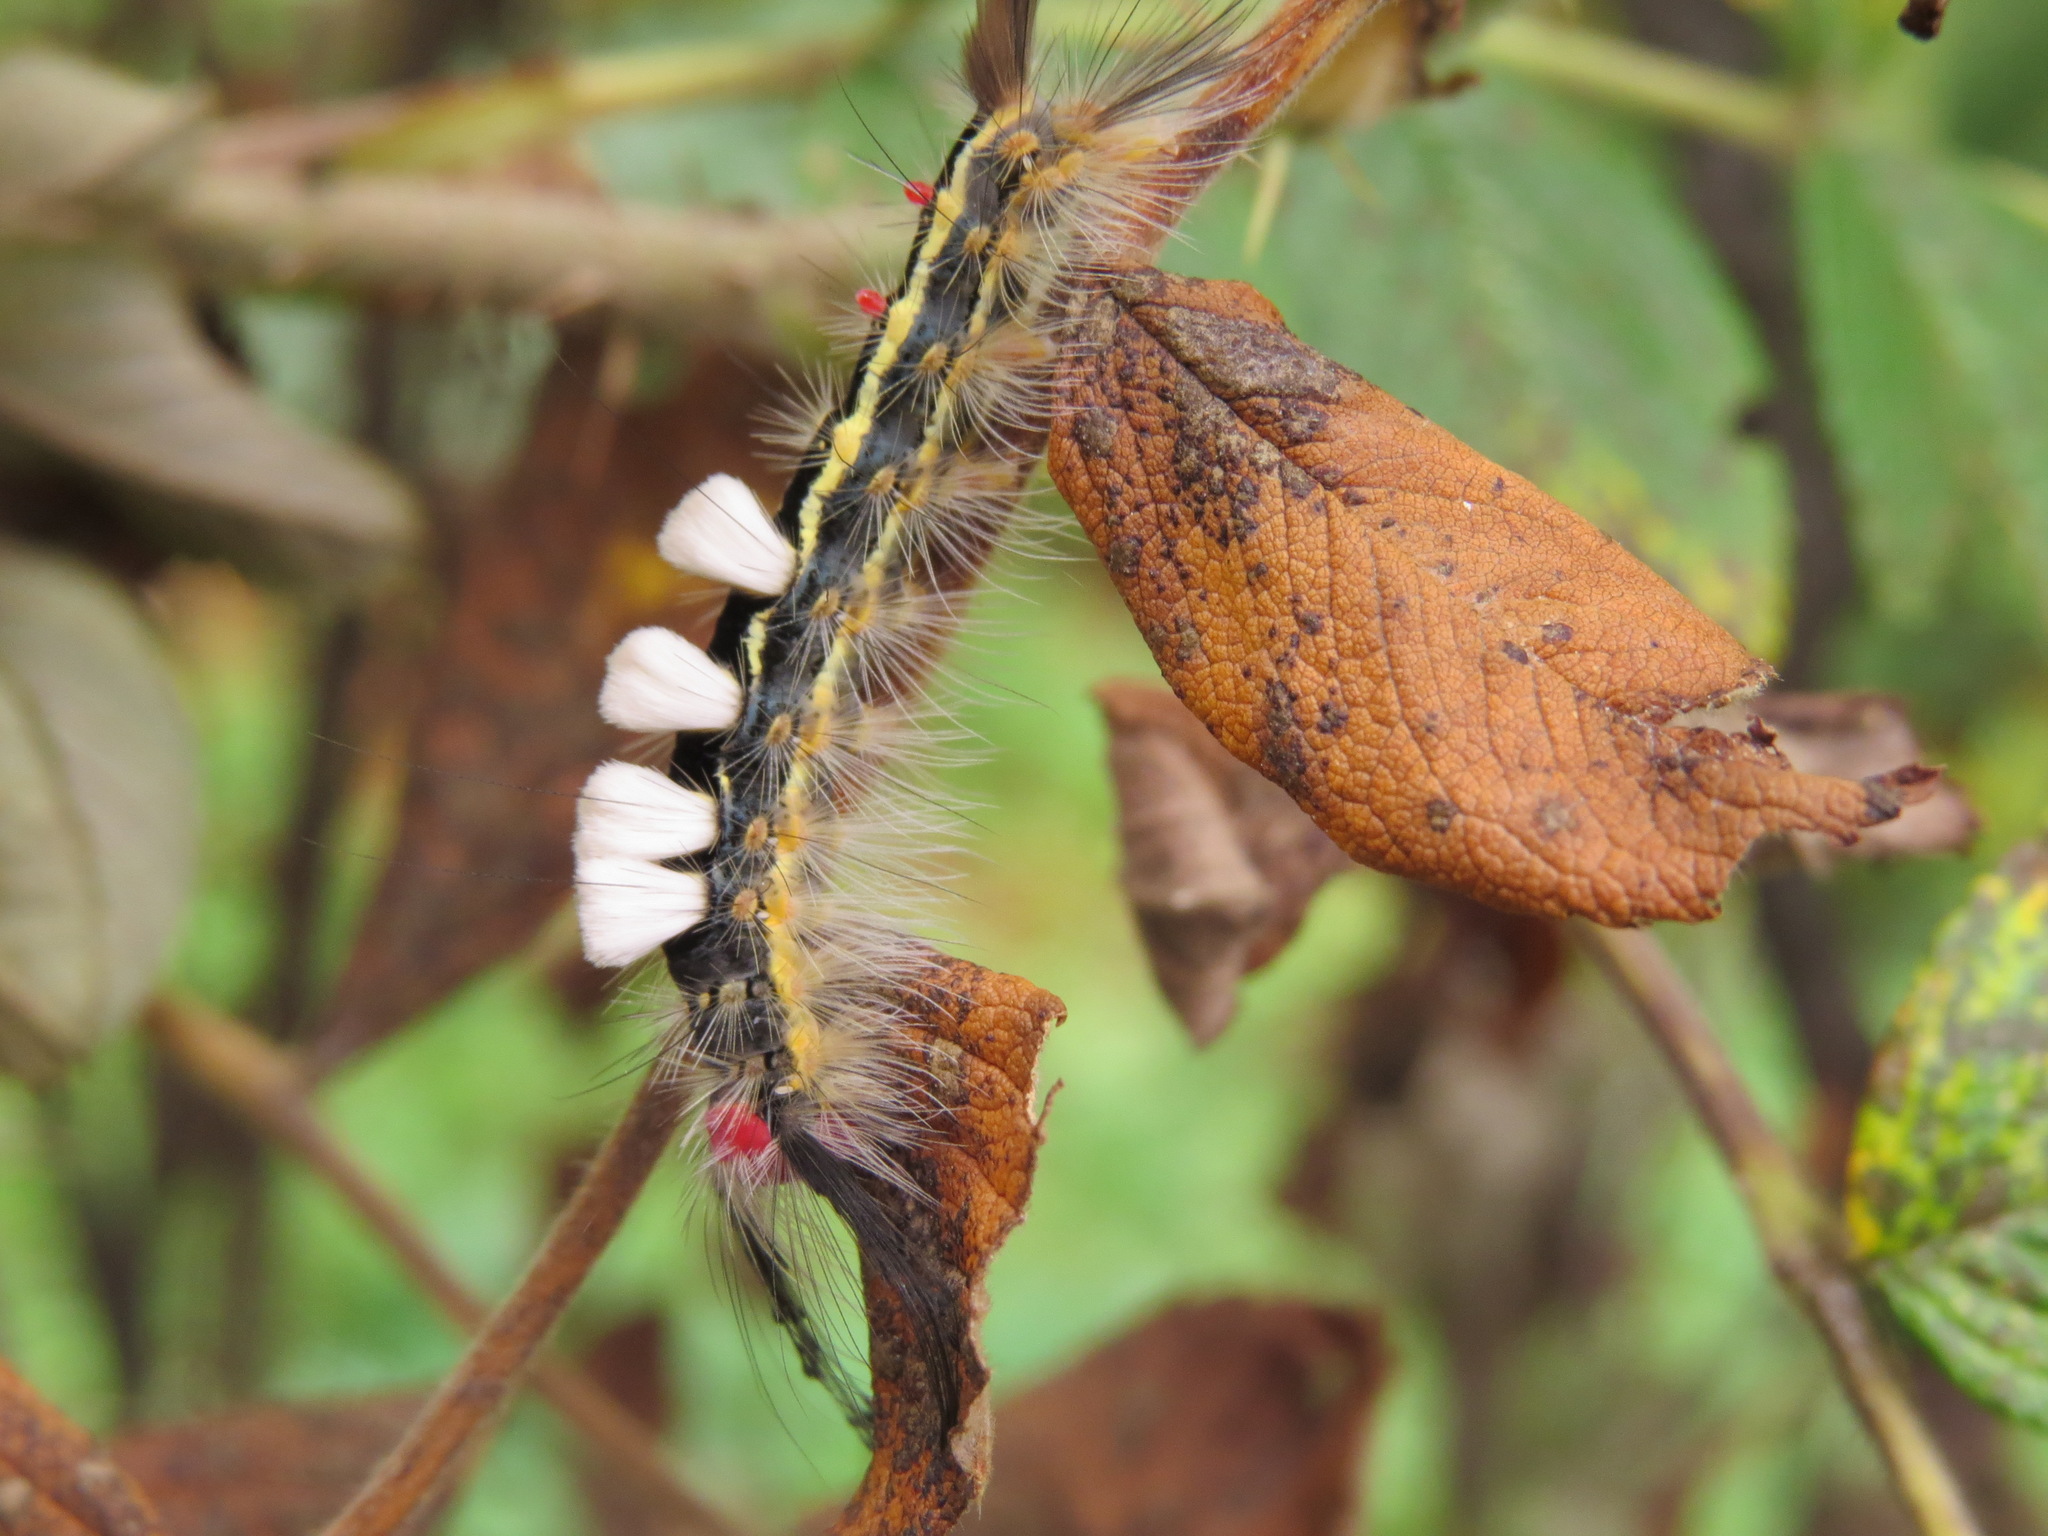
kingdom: Animalia
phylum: Arthropoda
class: Insecta
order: Lepidoptera
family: Erebidae
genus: Orgyia
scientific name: Orgyia leucostigma
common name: White-marked tussock moth
